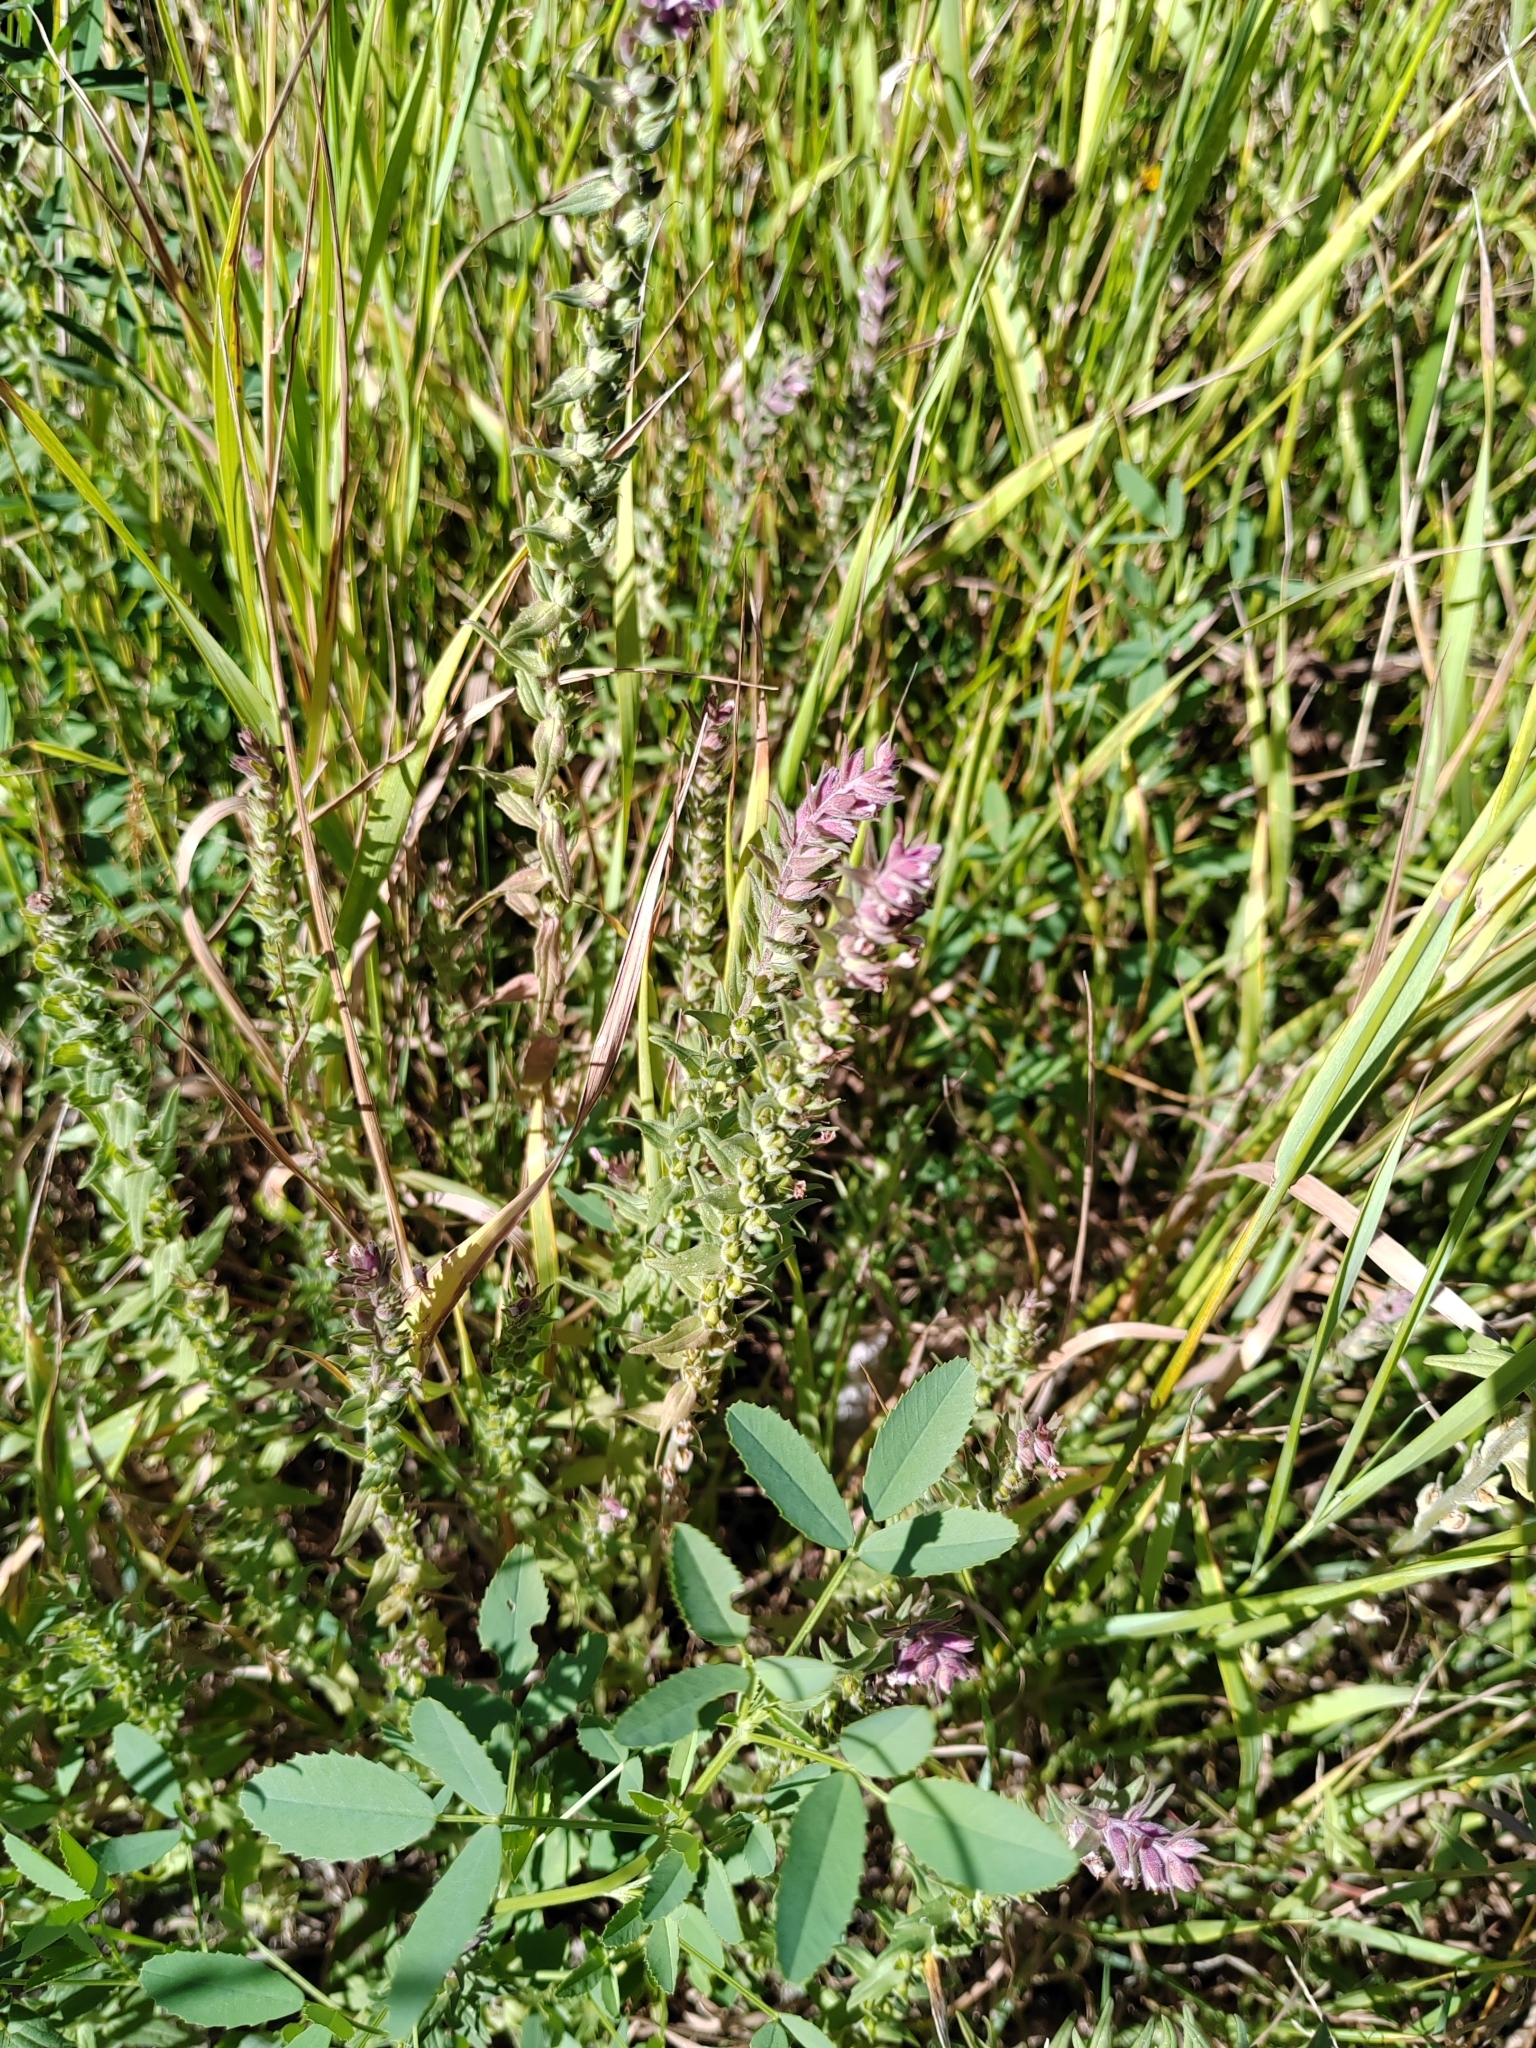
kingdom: Plantae
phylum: Tracheophyta
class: Magnoliopsida
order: Lamiales
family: Orobanchaceae
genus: Odontites
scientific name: Odontites vulgaris
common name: Broomrape
